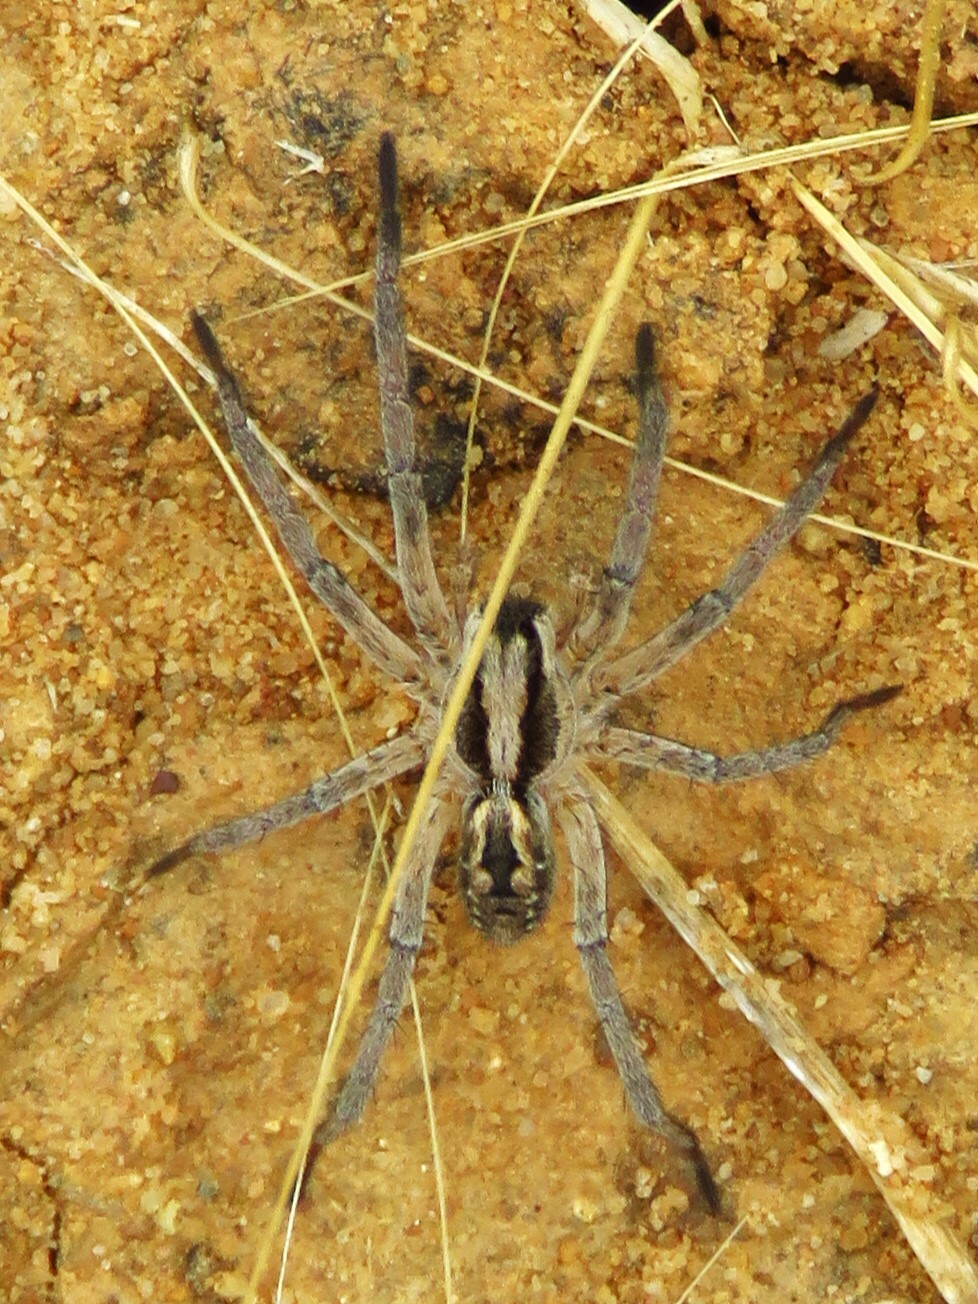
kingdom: Animalia
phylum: Arthropoda
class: Arachnida
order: Araneae
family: Lycosidae
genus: Hogna
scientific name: Hogna carolinensis
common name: Carolina wolf spider
